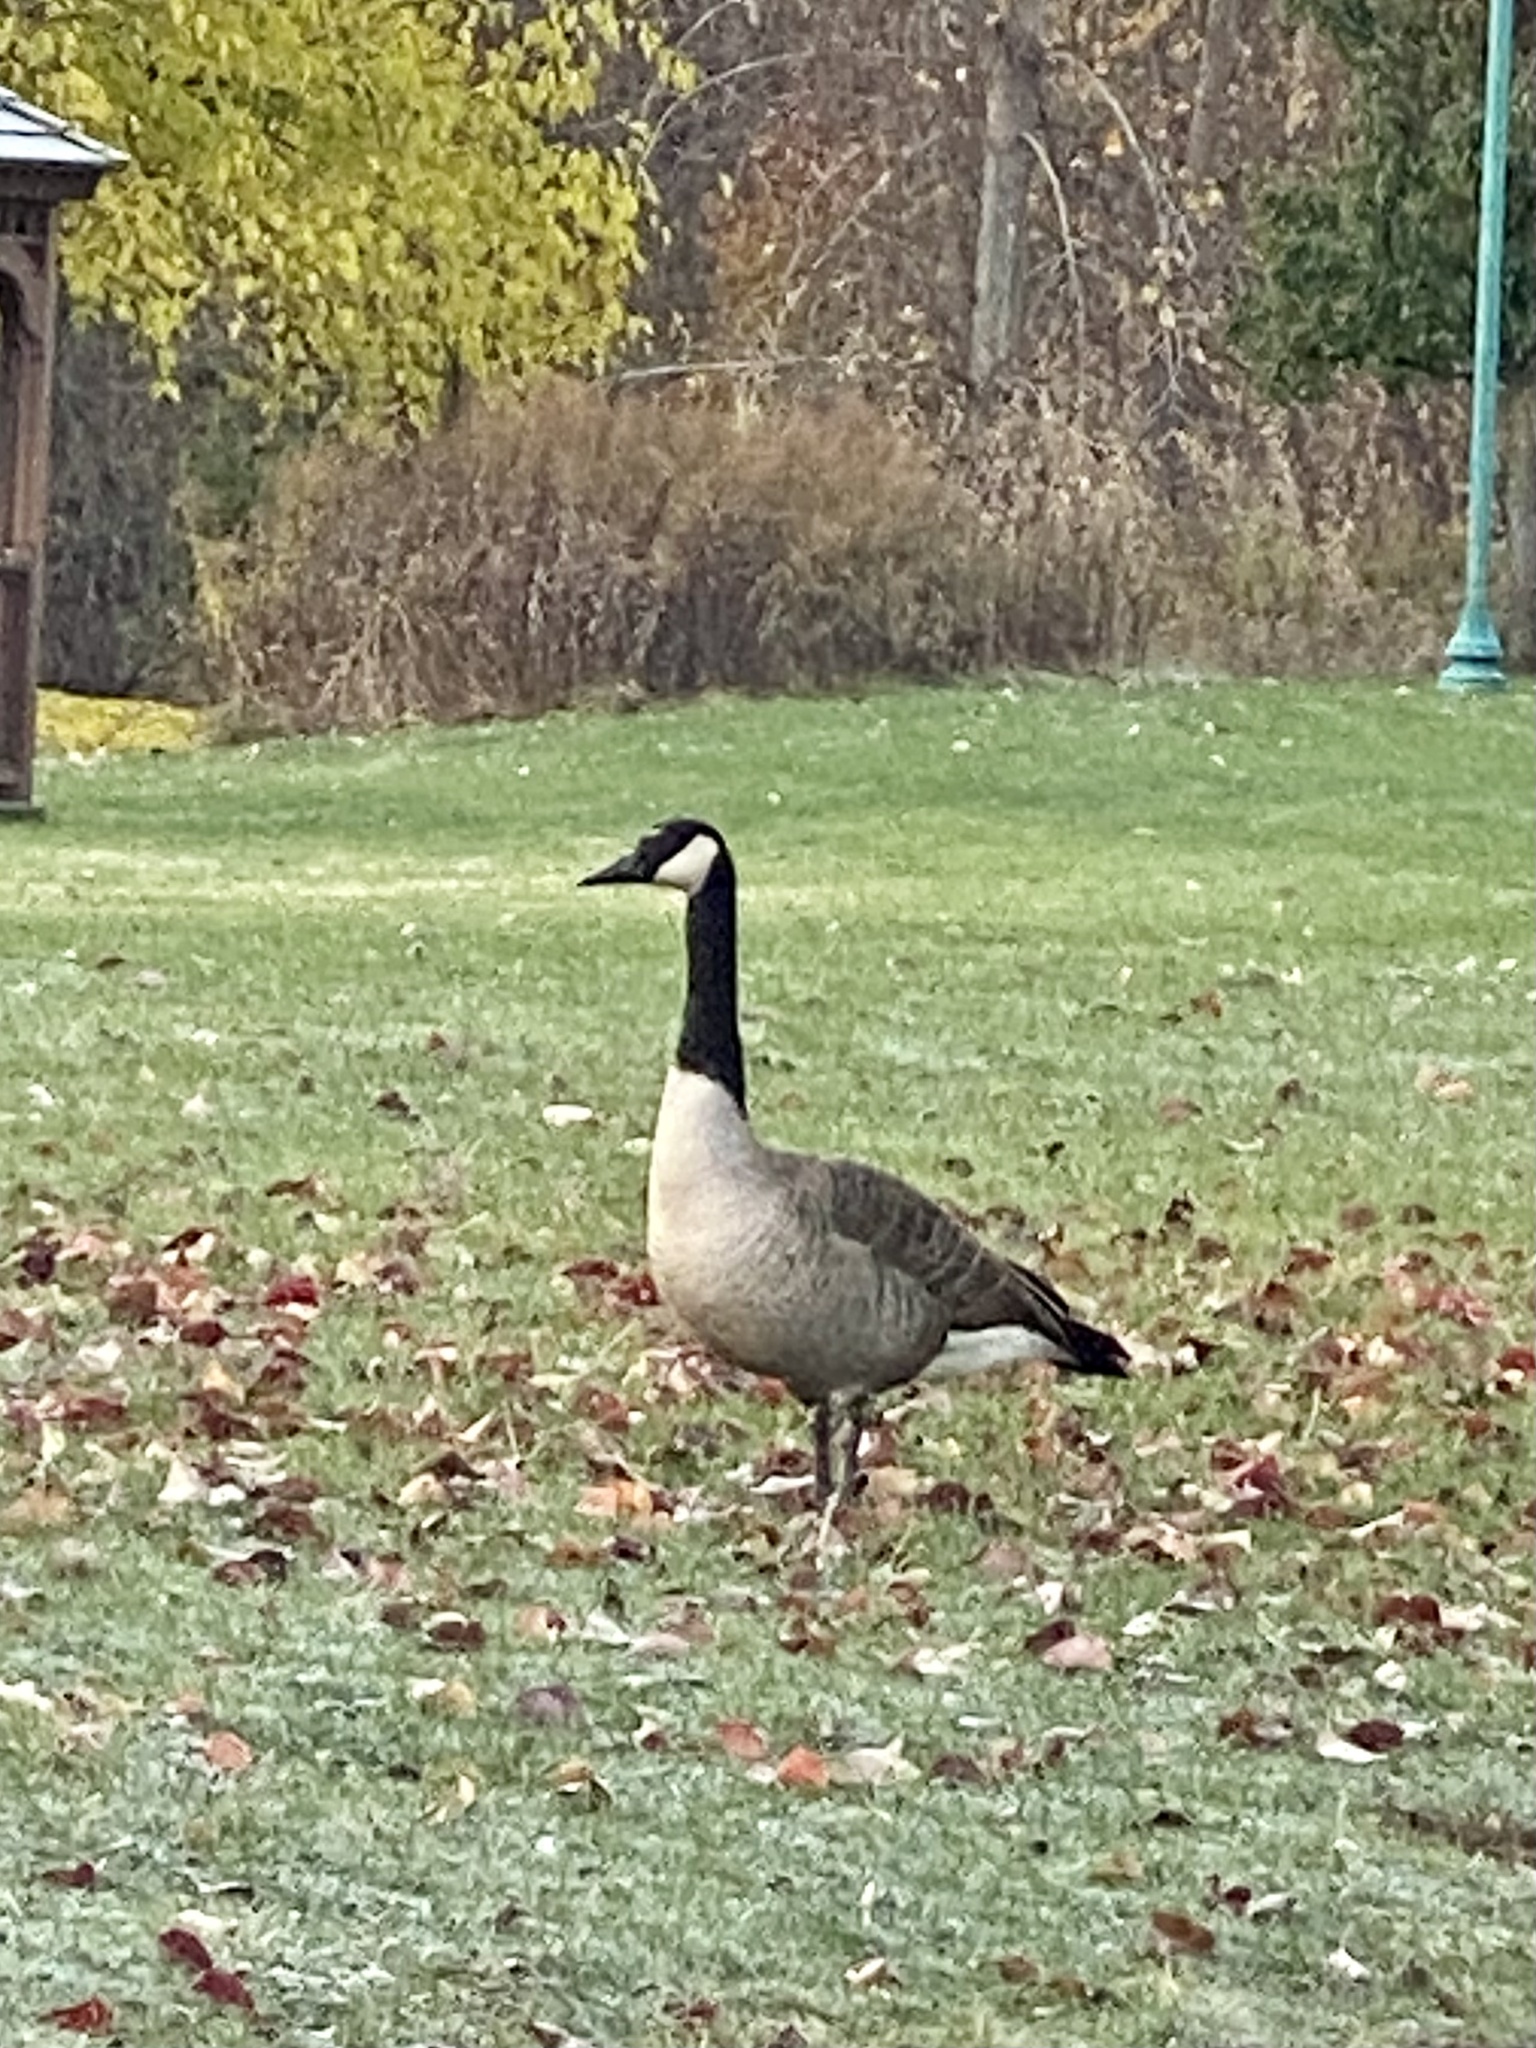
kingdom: Animalia
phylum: Chordata
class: Aves
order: Anseriformes
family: Anatidae
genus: Branta
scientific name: Branta canadensis
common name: Canada goose
